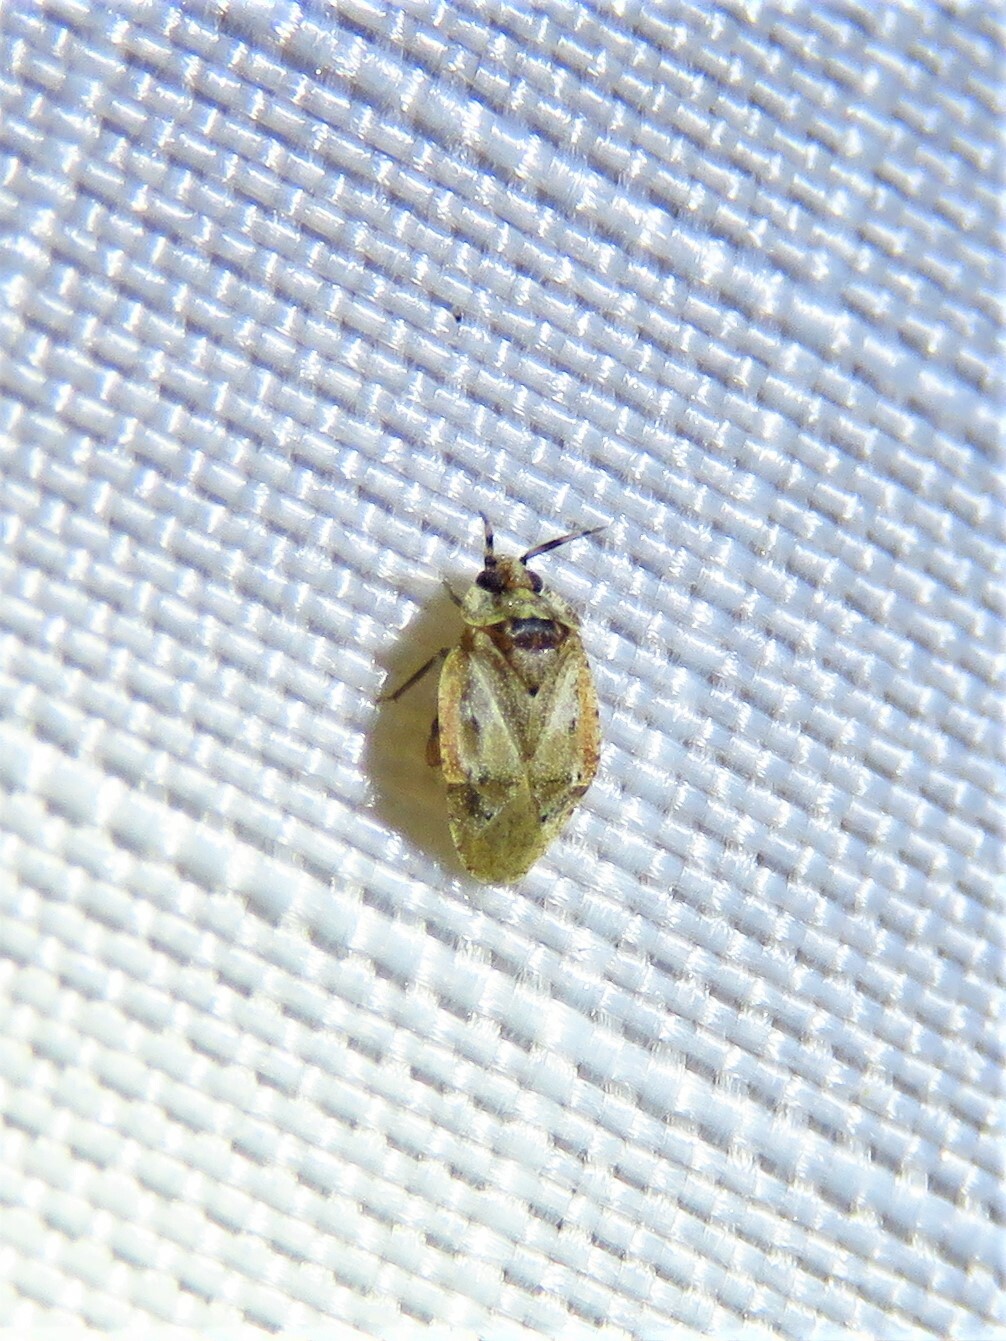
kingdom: Animalia
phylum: Arthropoda
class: Insecta
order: Hemiptera
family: Miridae
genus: Diphleps
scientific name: Diphleps unica
